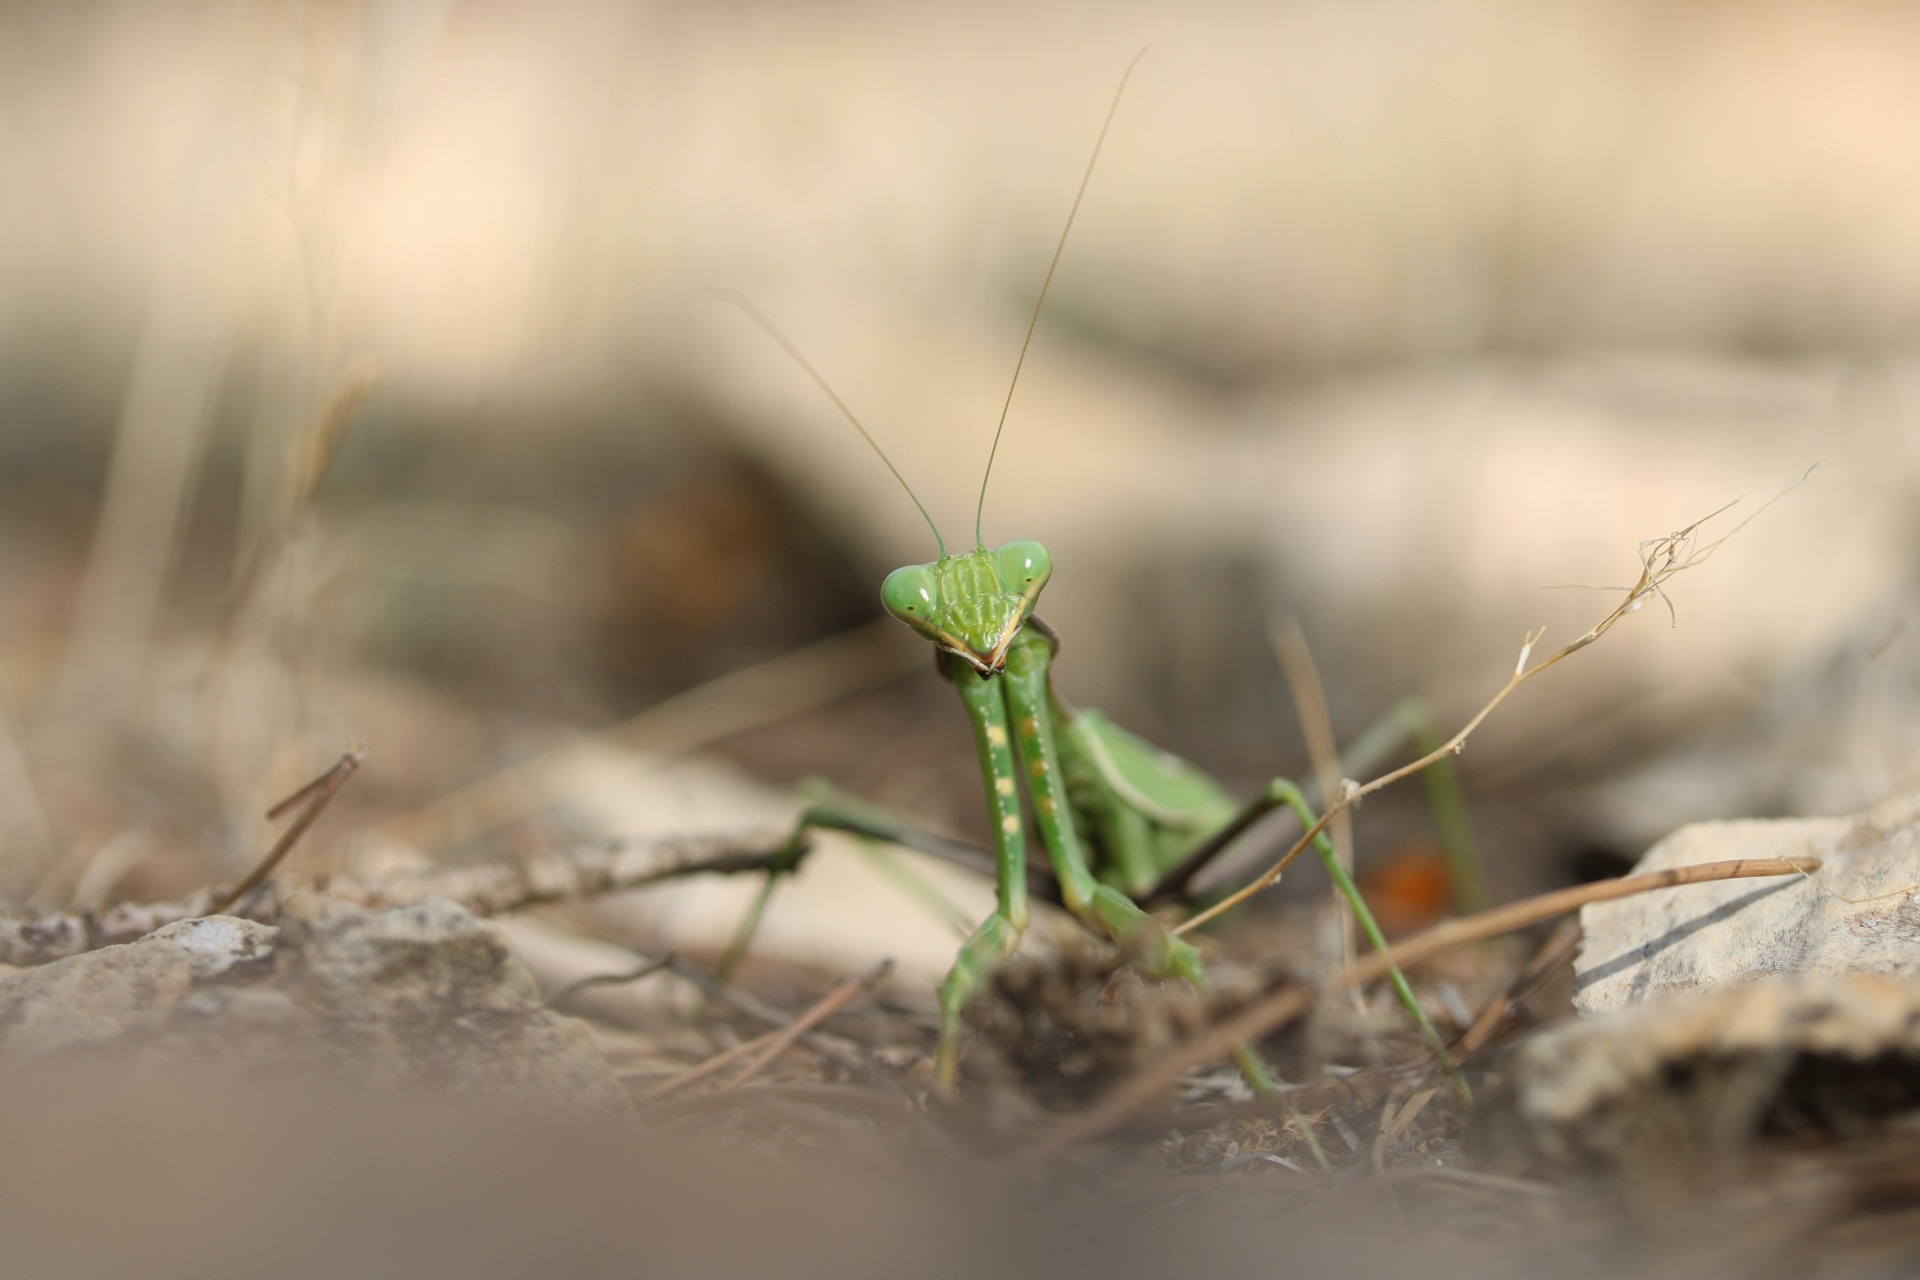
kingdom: Animalia
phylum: Arthropoda
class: Insecta
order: Mantodea
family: Mantidae
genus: Sphodromantis
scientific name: Sphodromantis viridis
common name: Giant african mantis
